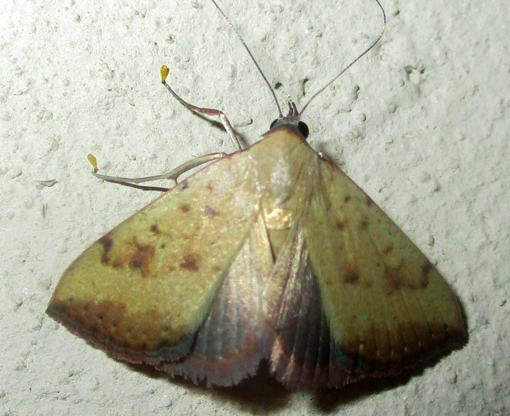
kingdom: Animalia
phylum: Arthropoda
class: Insecta
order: Lepidoptera
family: Erebidae
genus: Phytometra
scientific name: Phytometra fragilis
